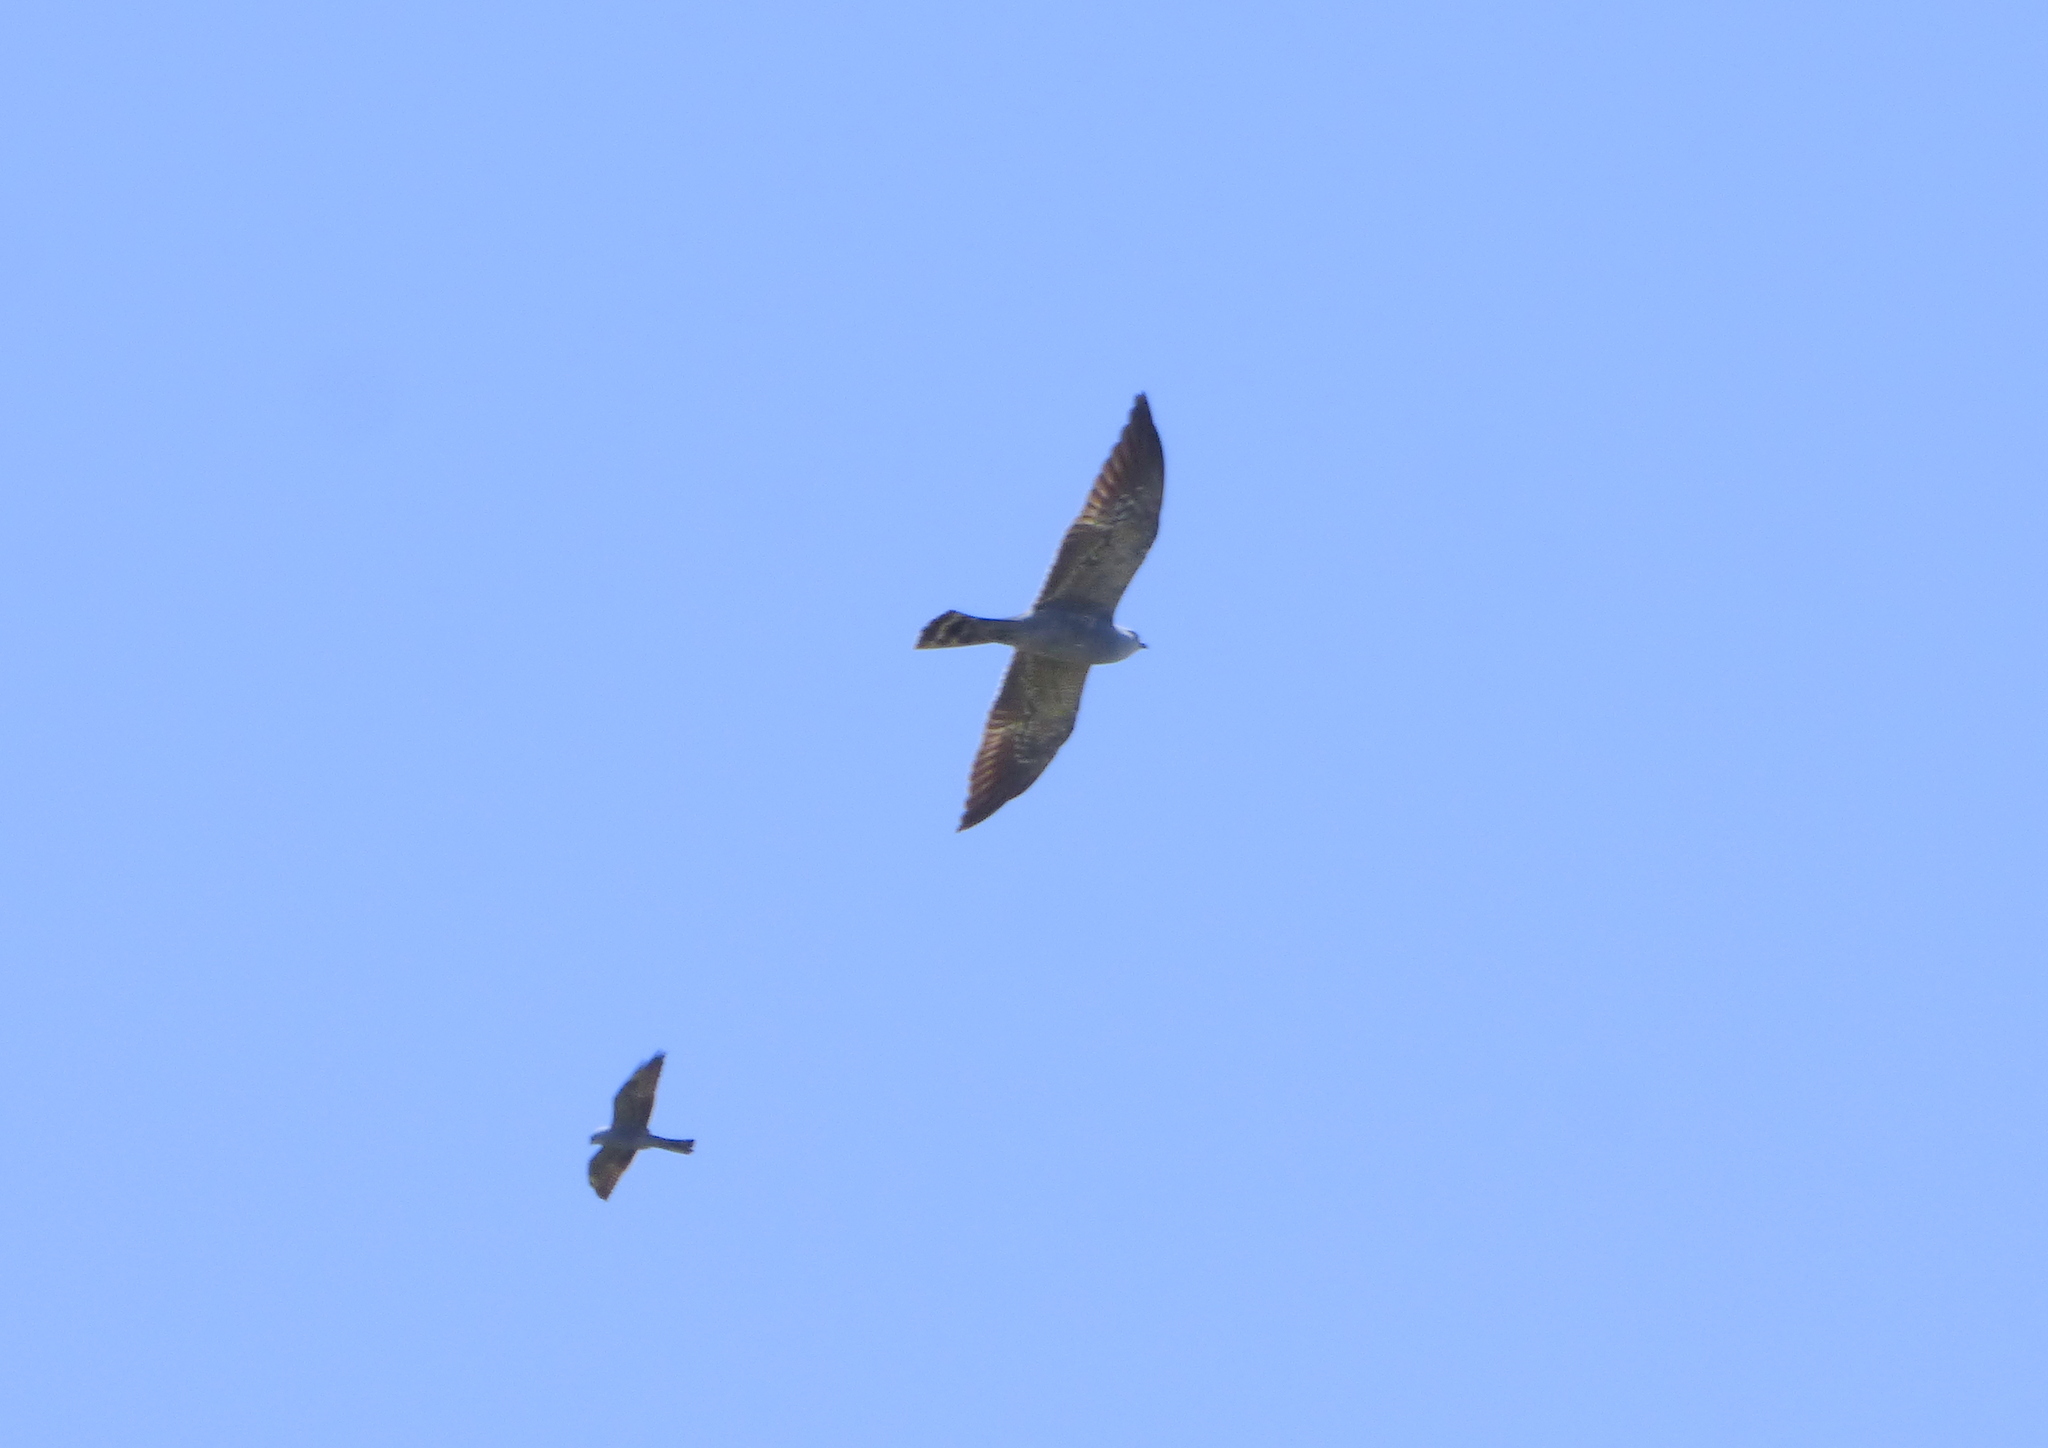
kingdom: Animalia
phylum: Chordata
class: Aves
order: Accipitriformes
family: Accipitridae
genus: Ictinia
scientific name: Ictinia mississippiensis
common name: Mississippi kite
